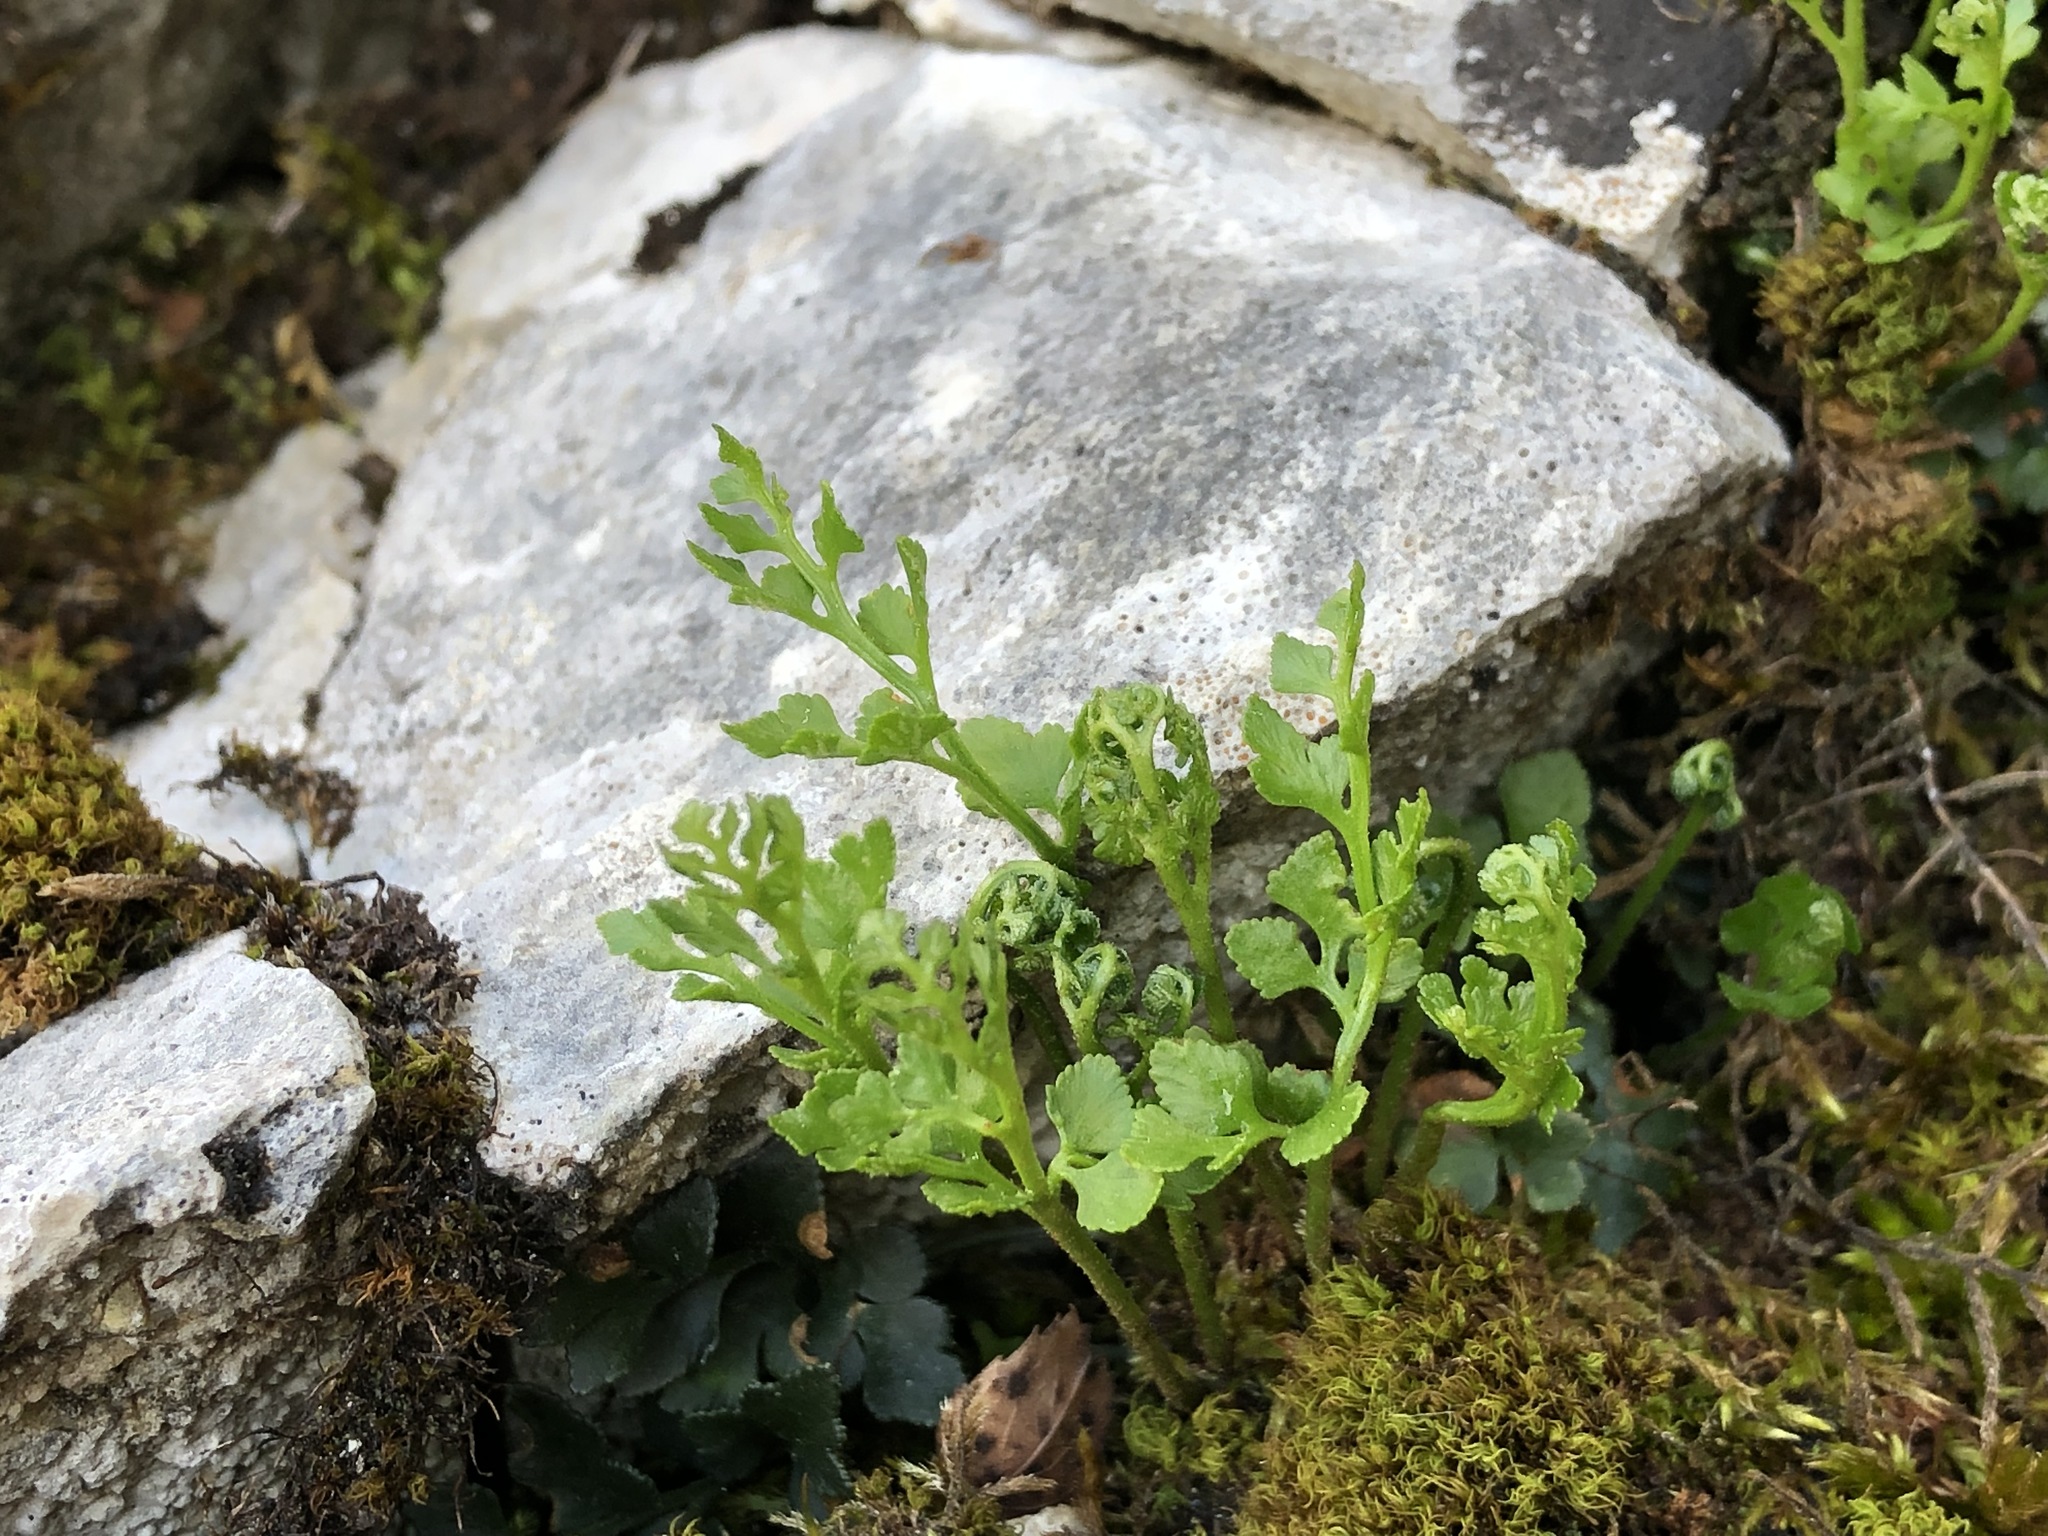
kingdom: Plantae
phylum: Tracheophyta
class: Polypodiopsida
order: Polypodiales
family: Aspleniaceae
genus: Asplenium
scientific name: Asplenium ruta-muraria
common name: Wall-rue
